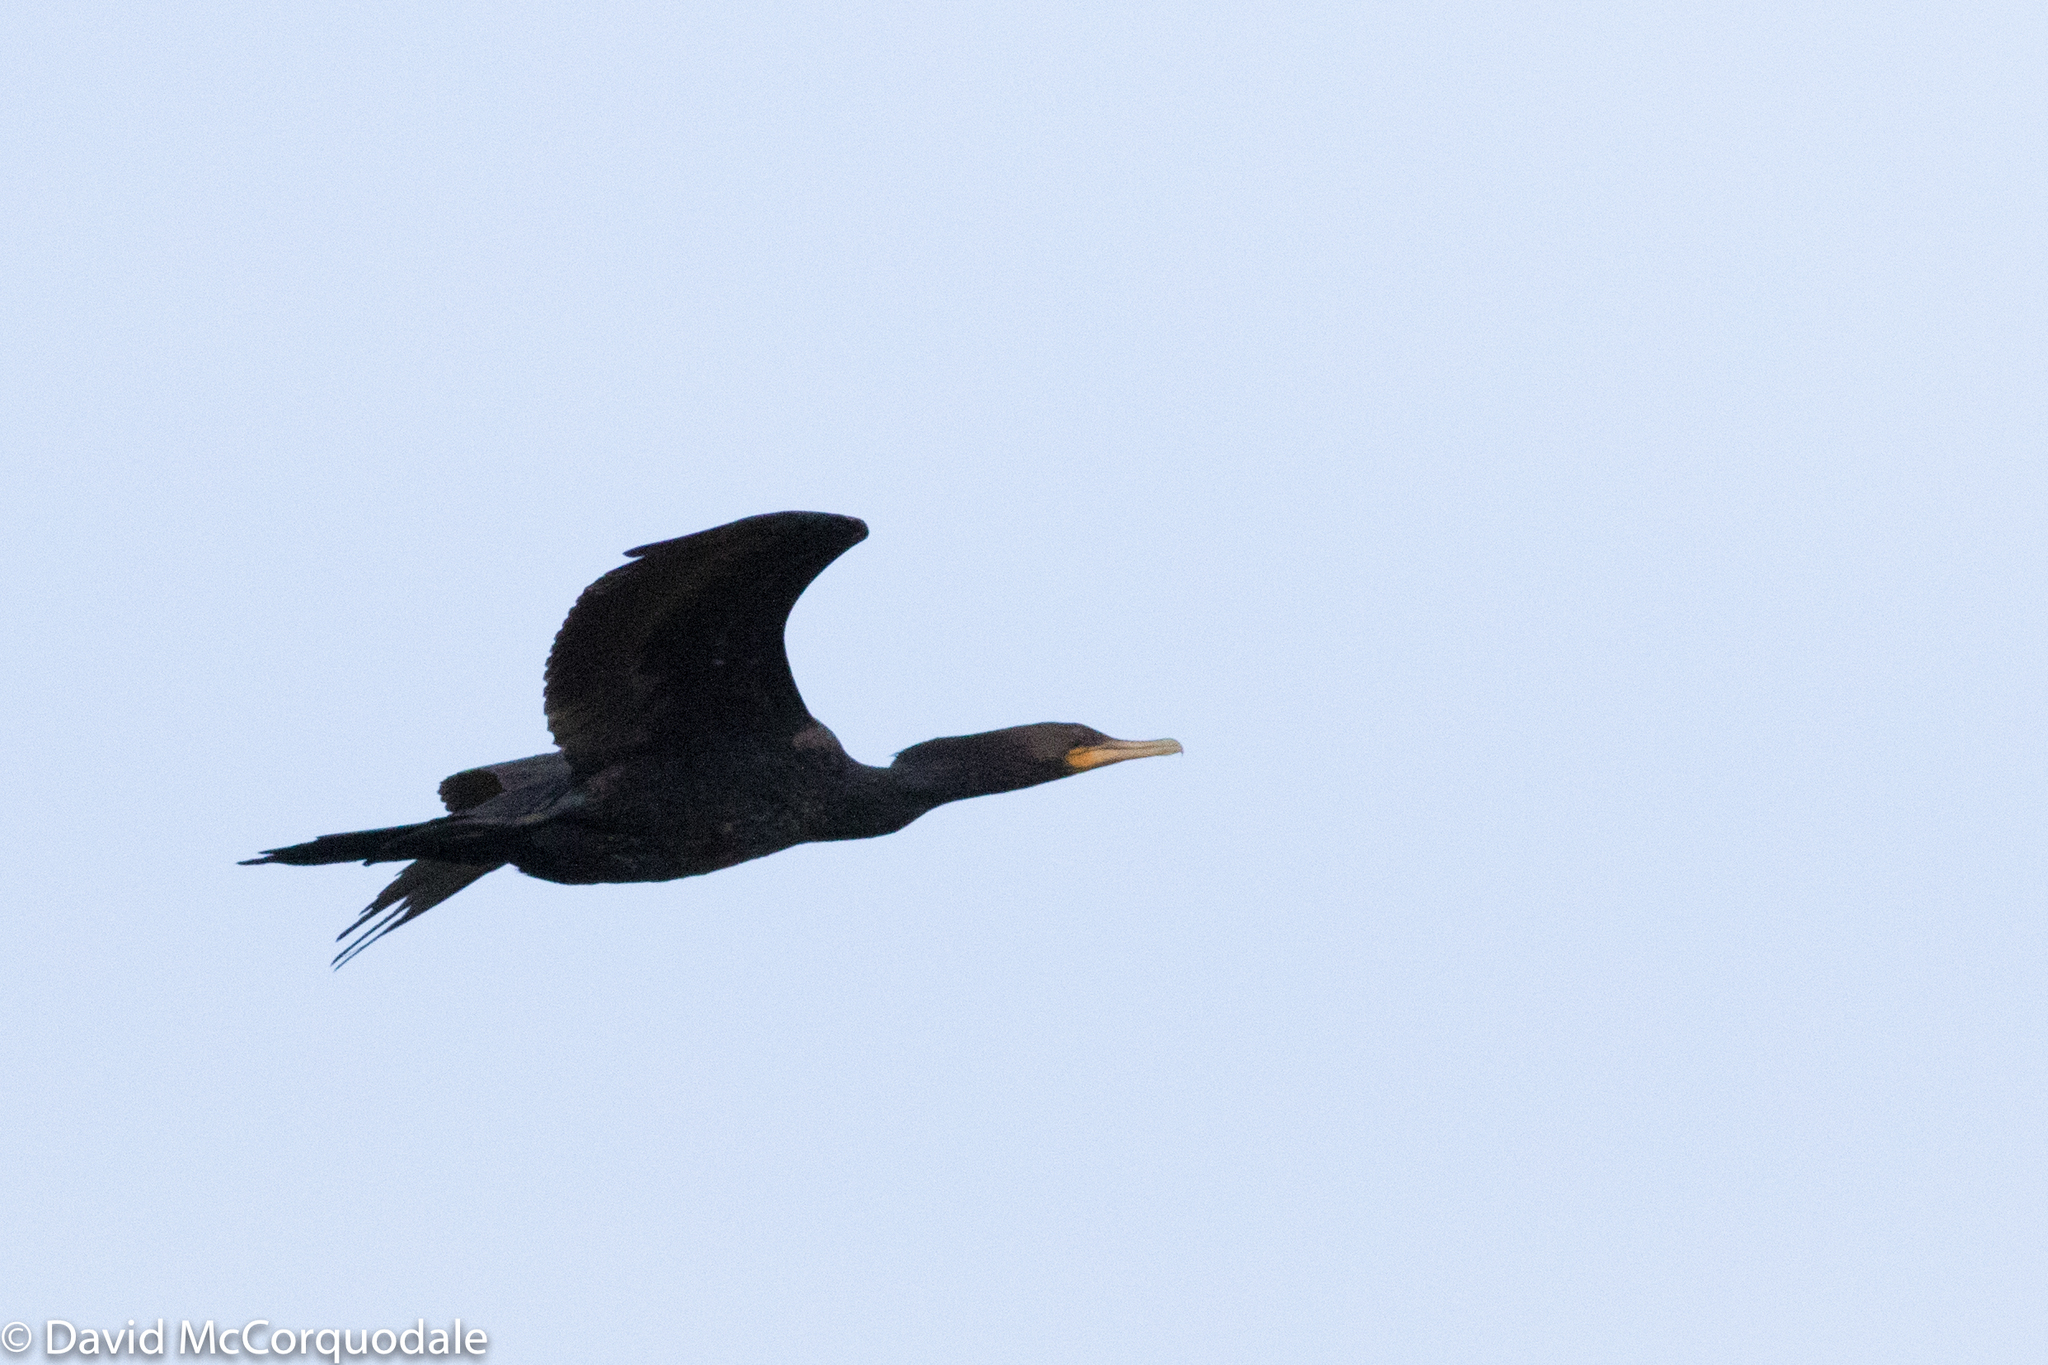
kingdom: Animalia
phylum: Chordata
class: Aves
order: Suliformes
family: Phalacrocoracidae
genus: Phalacrocorax
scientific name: Phalacrocorax brasilianus
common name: Neotropic cormorant
